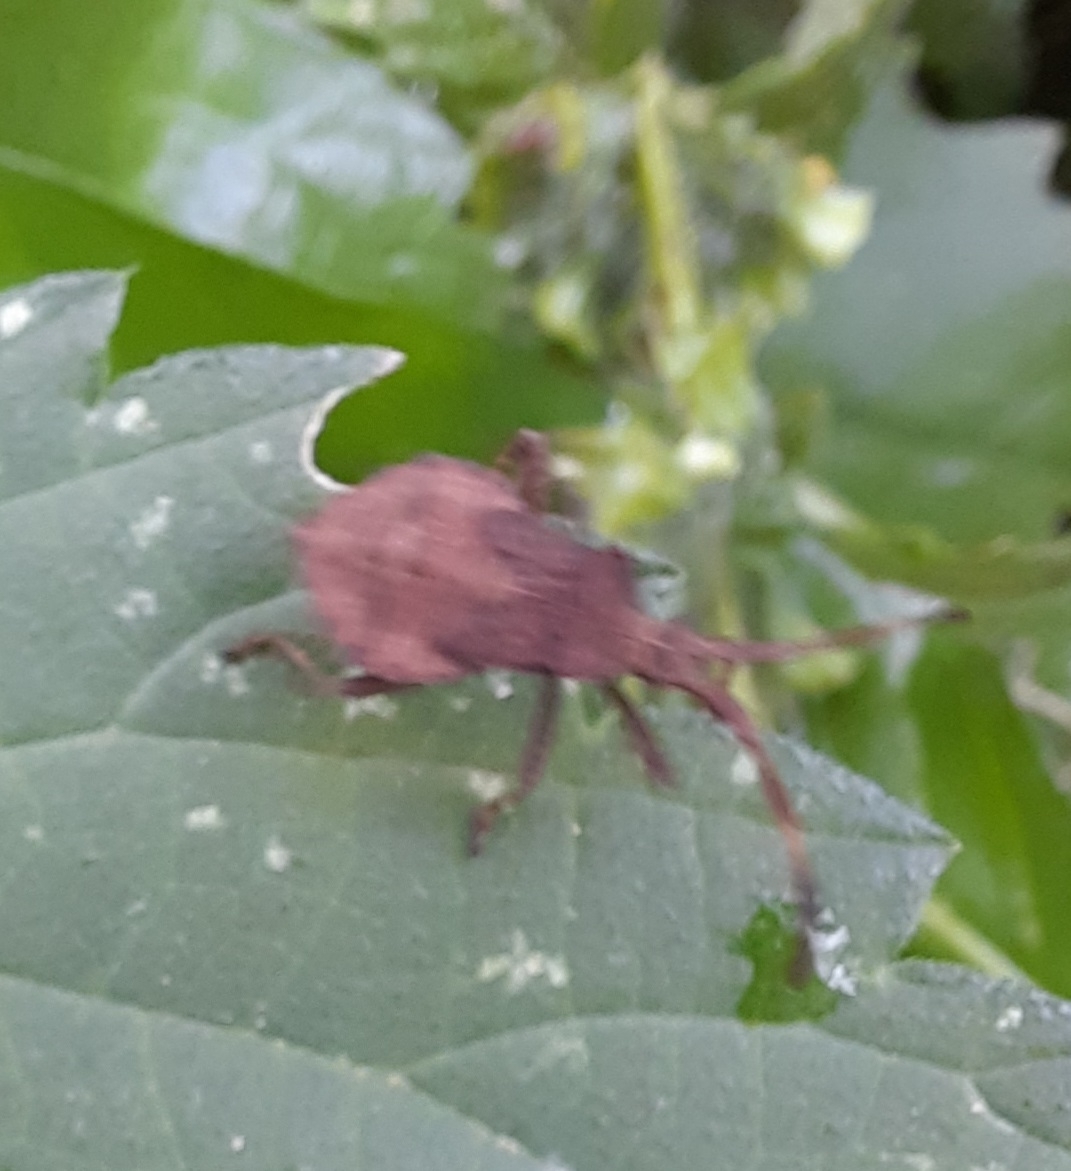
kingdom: Animalia
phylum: Arthropoda
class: Insecta
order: Hemiptera
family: Coreidae
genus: Coreus
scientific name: Coreus marginatus
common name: Dock bug
